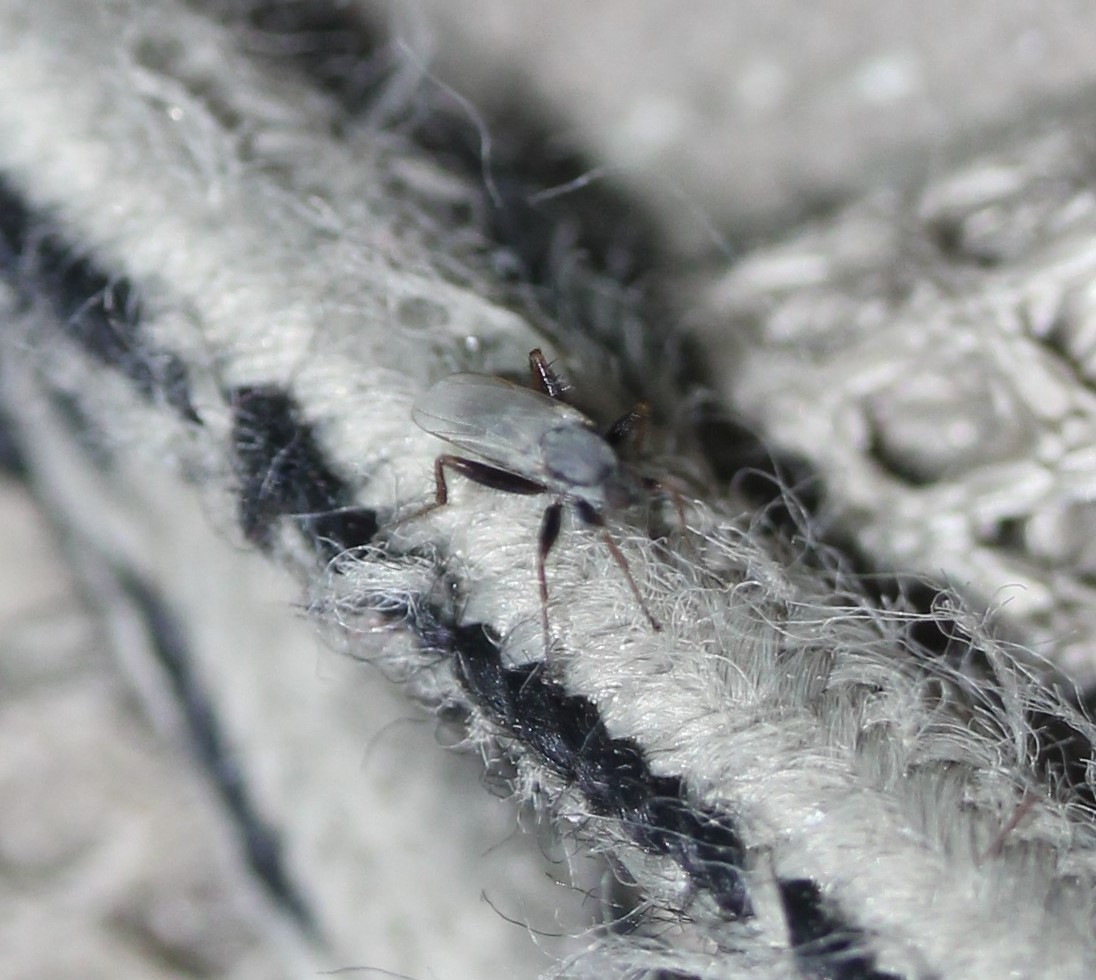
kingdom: Animalia
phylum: Arthropoda
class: Insecta
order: Diptera
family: Hybotidae
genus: Chersodromia
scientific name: Chersodromia inusitata
